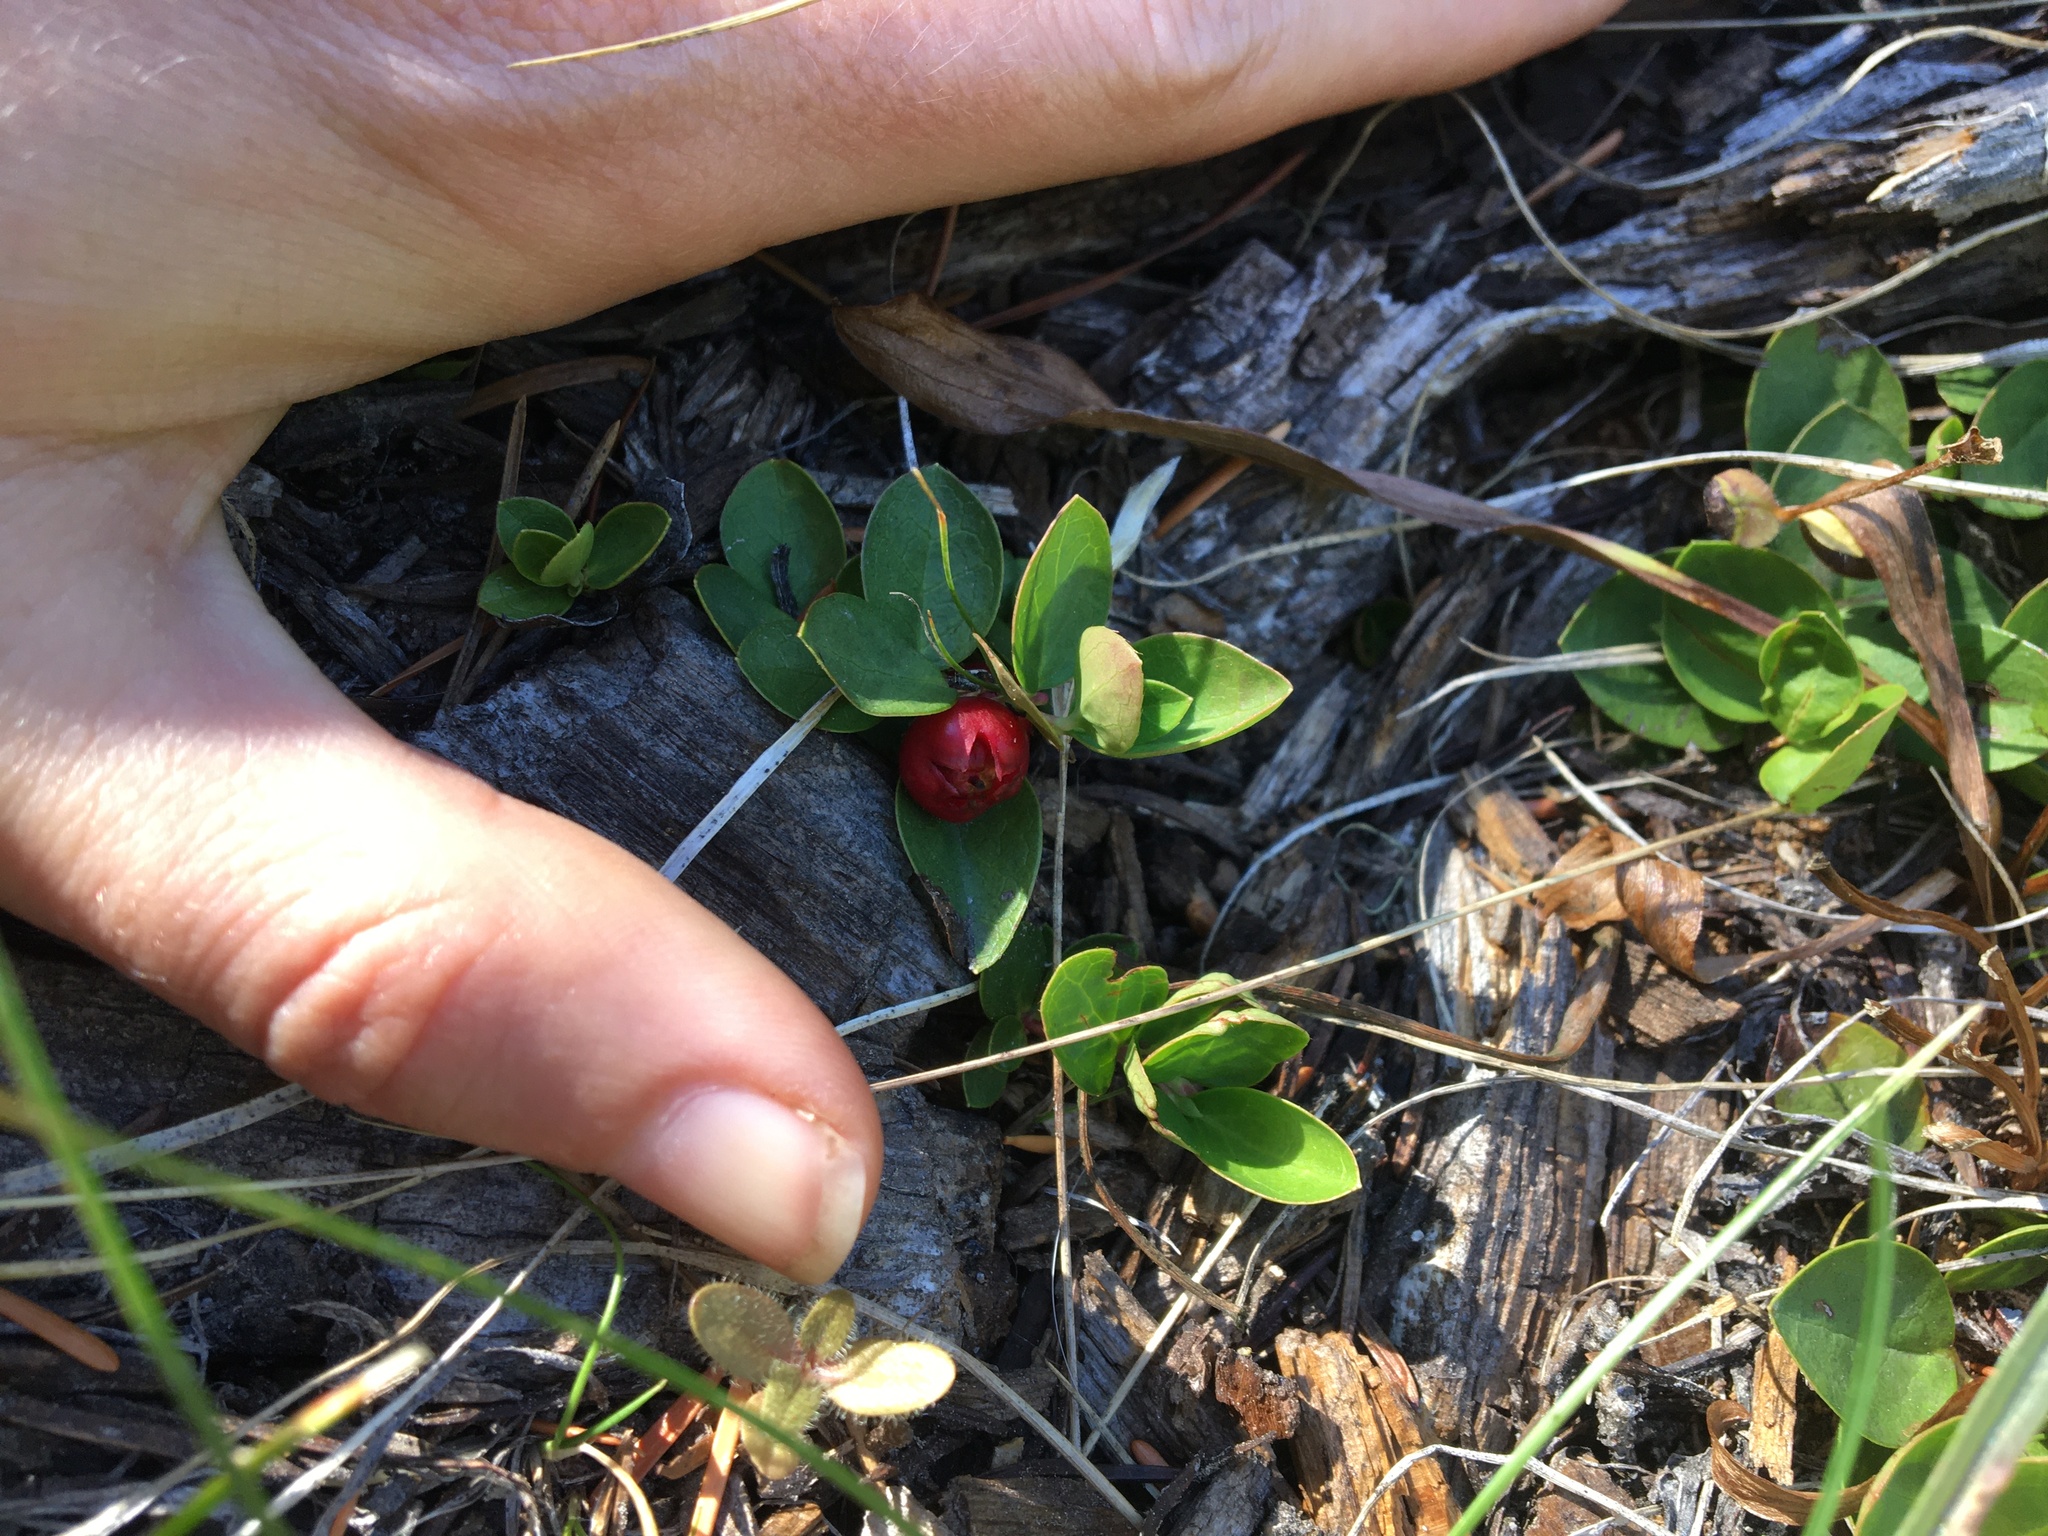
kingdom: Plantae
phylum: Tracheophyta
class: Magnoliopsida
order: Ericales
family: Ericaceae
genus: Gaultheria
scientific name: Gaultheria humifusa
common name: Alpine wintergreen
